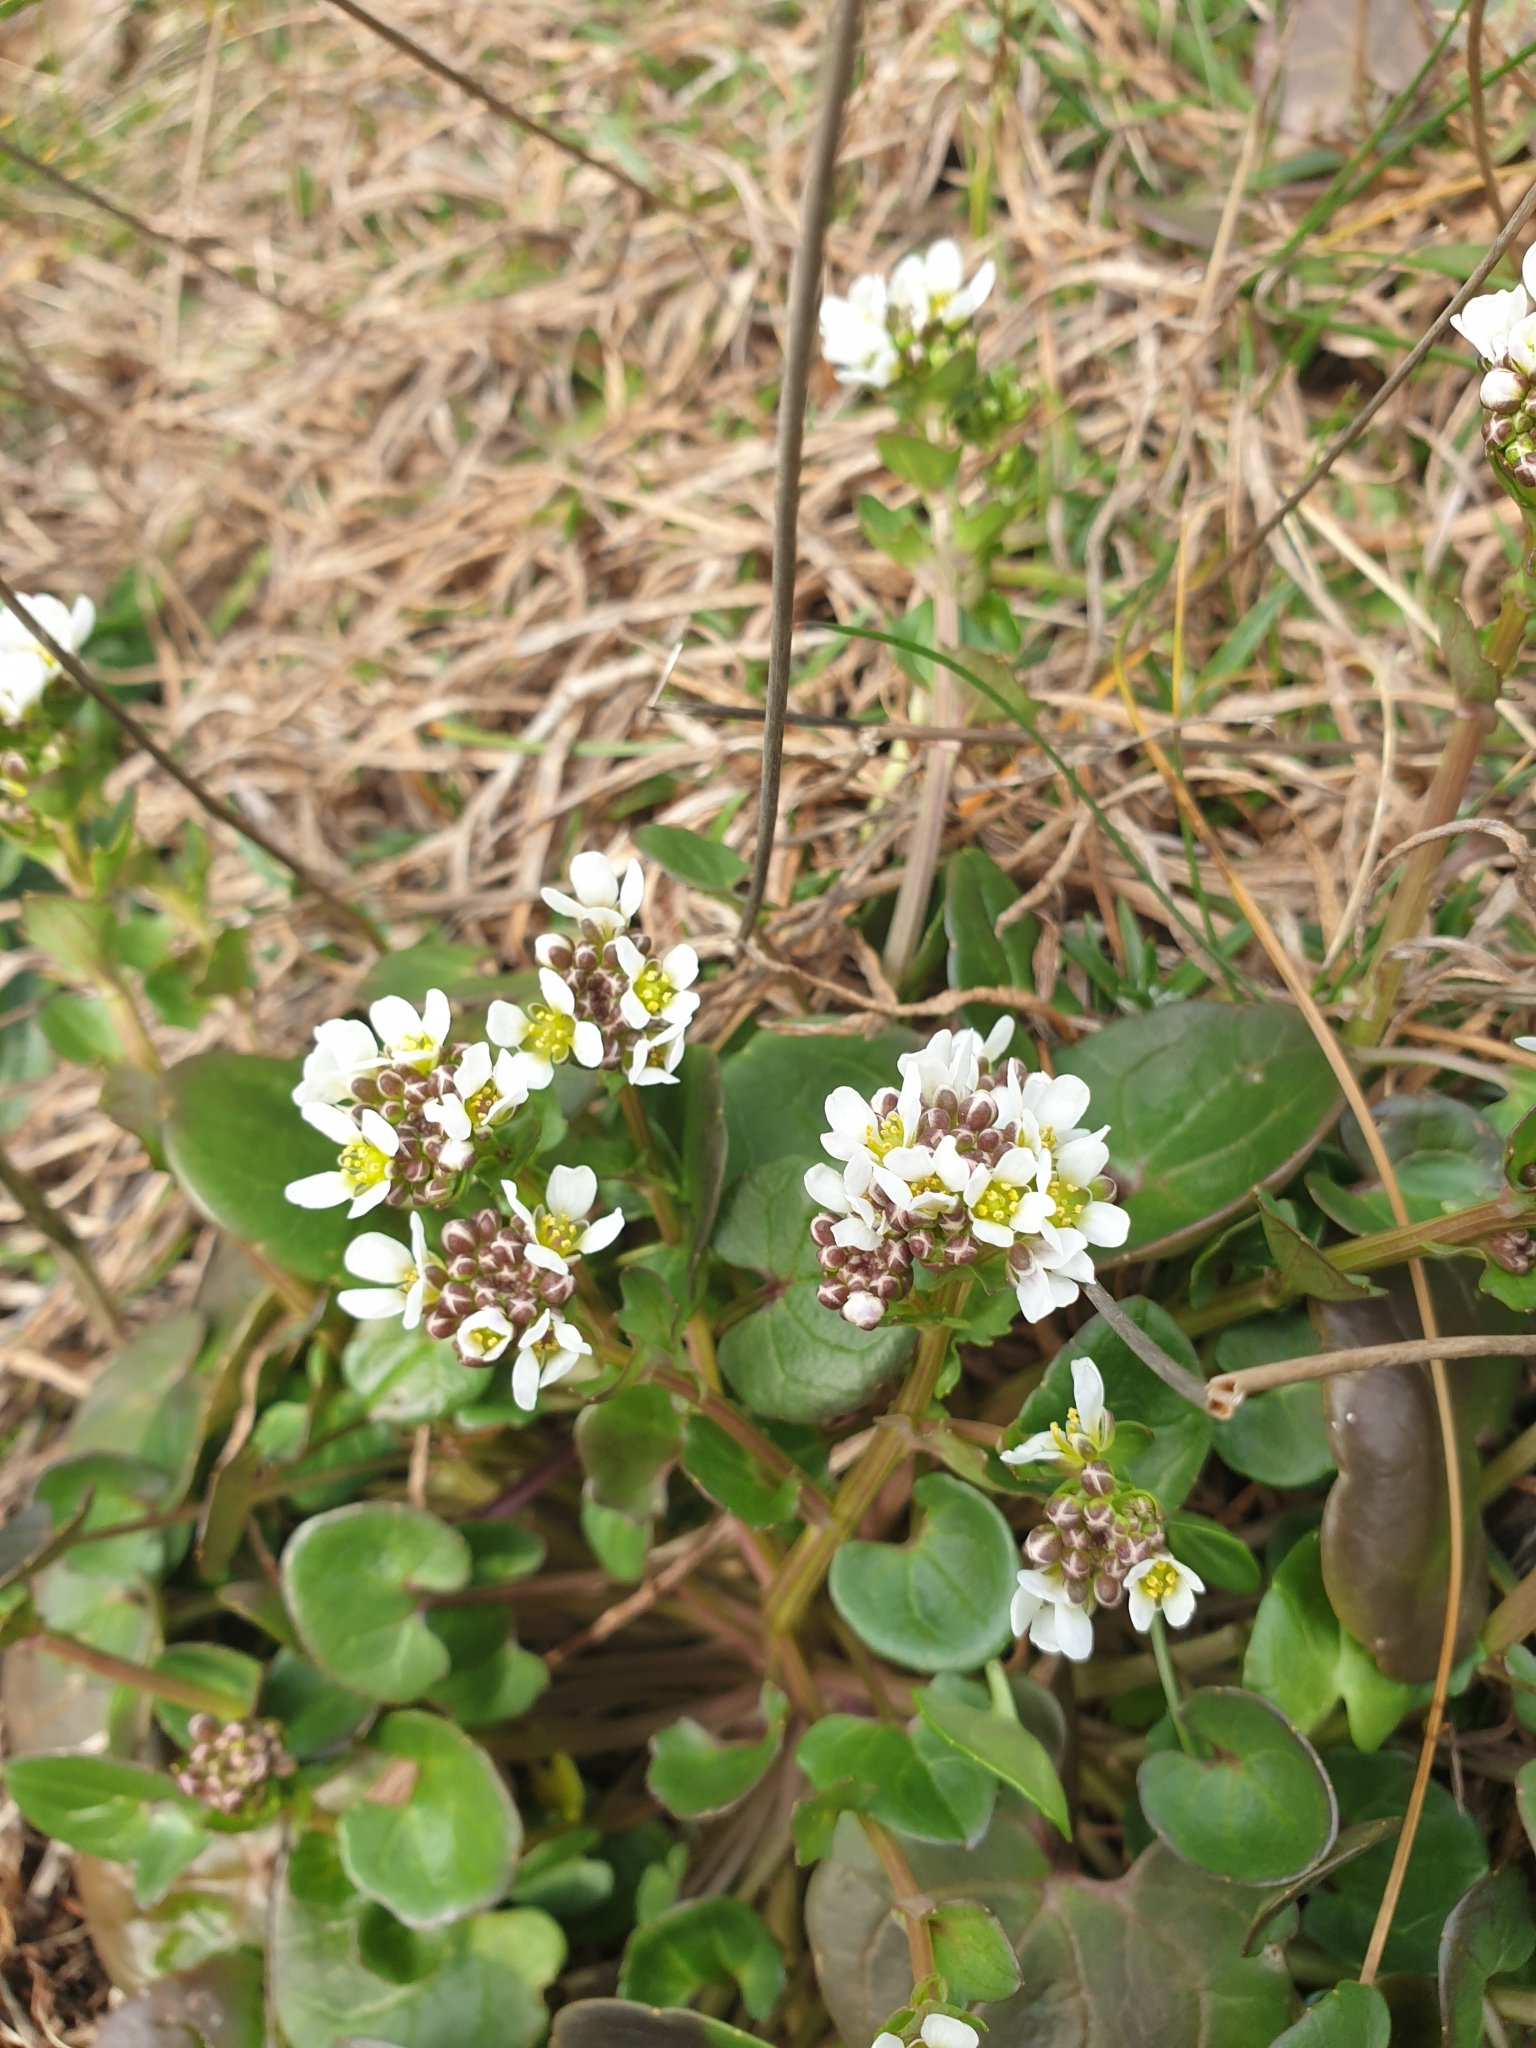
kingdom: Plantae
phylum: Tracheophyta
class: Magnoliopsida
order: Brassicales
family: Brassicaceae
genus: Cochlearia
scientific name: Cochlearia officinalis
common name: Scurvy-grass
